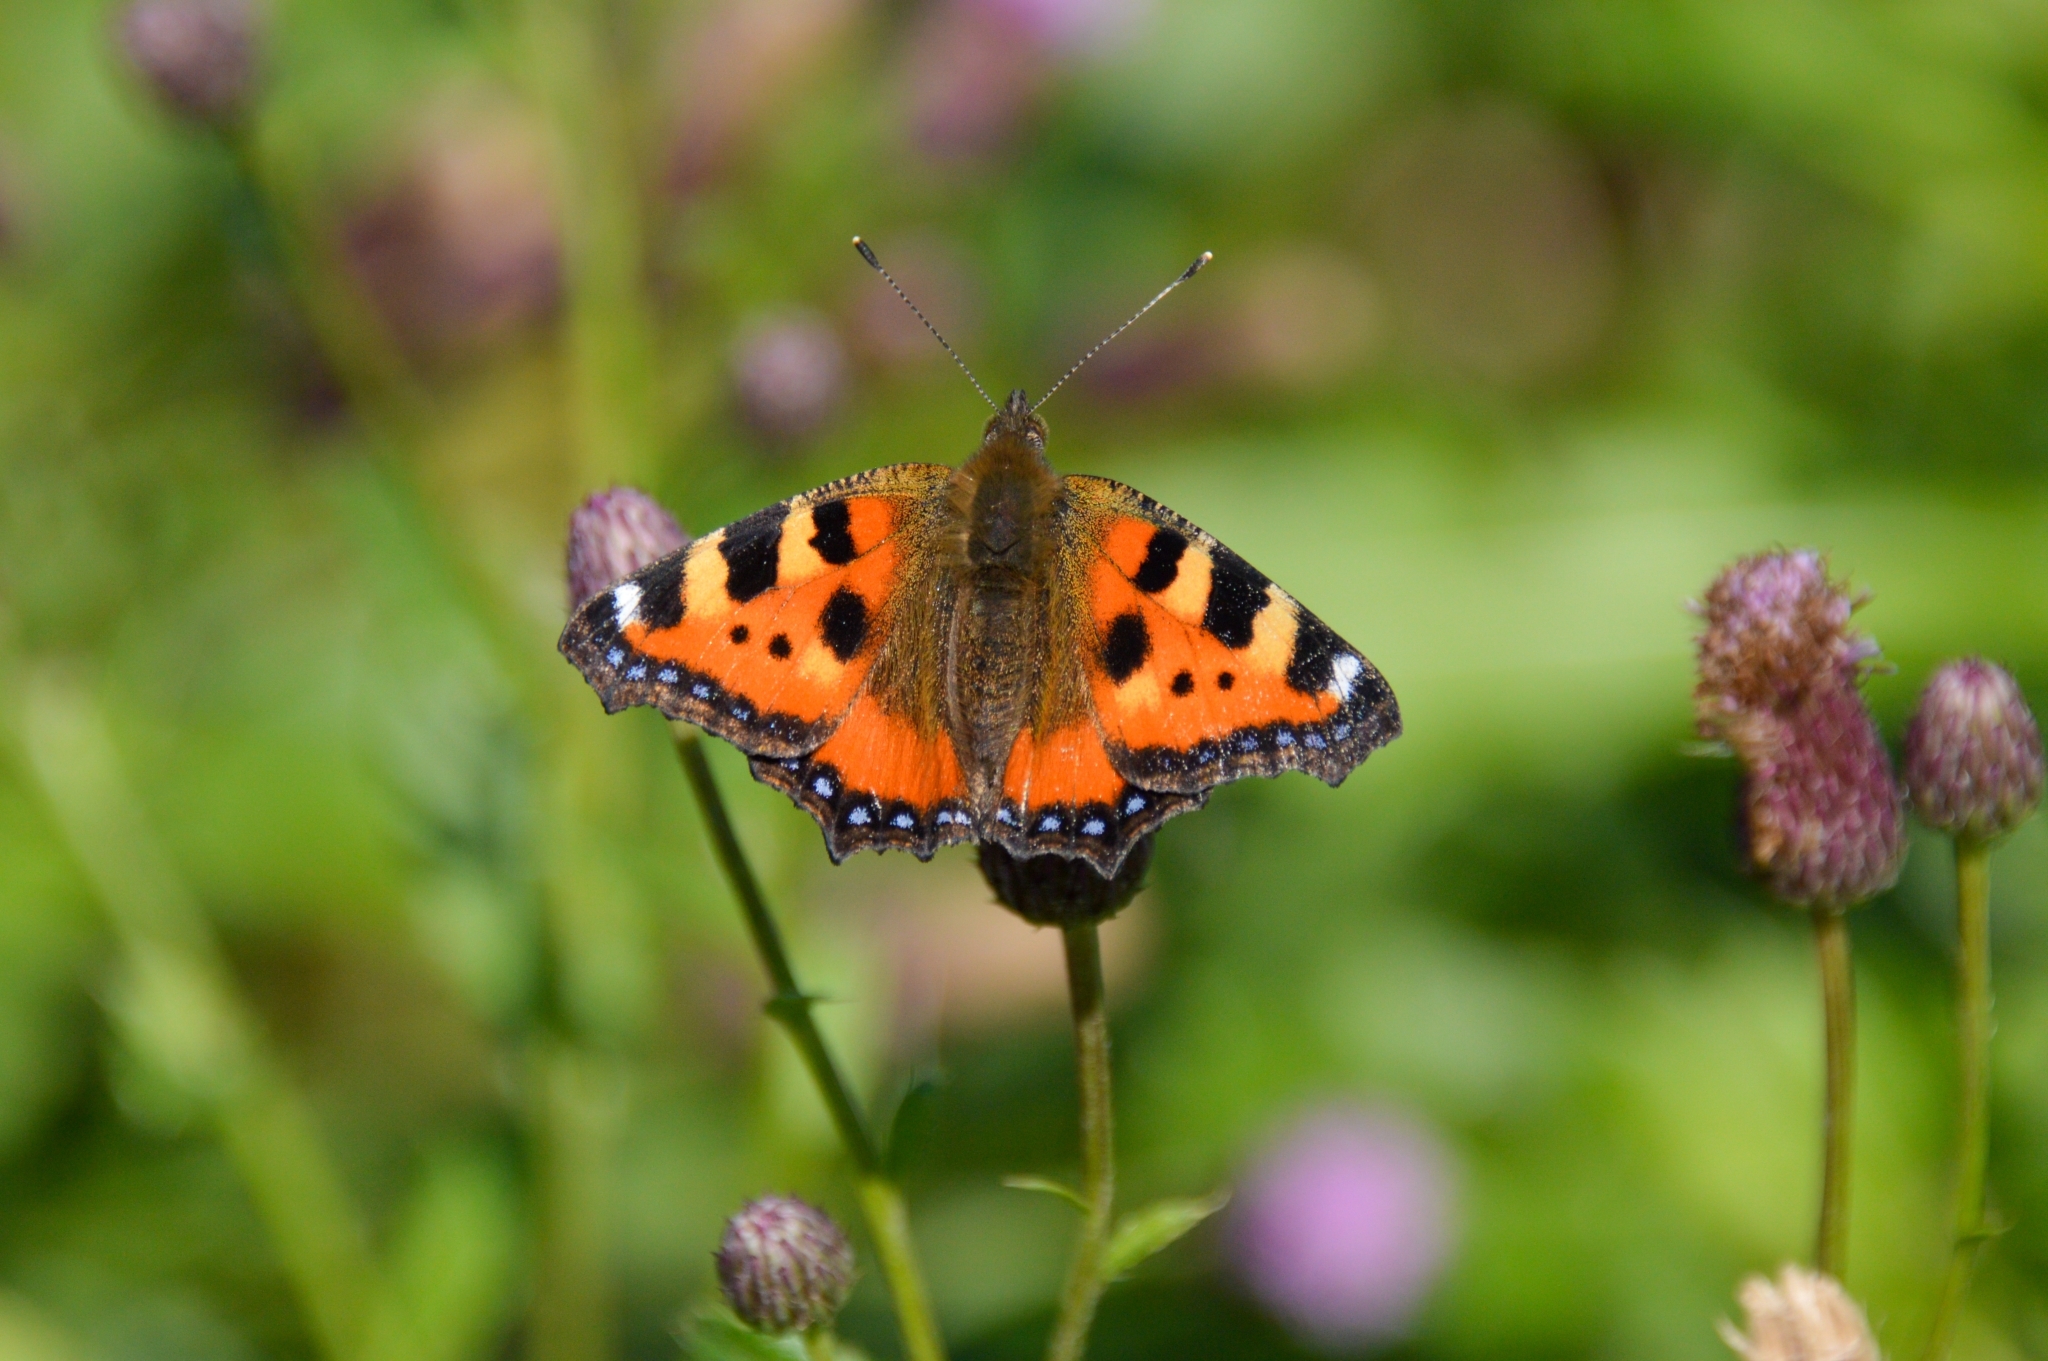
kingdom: Animalia
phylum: Arthropoda
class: Insecta
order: Lepidoptera
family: Nymphalidae
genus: Aglais
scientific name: Aglais urticae
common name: Small tortoiseshell
